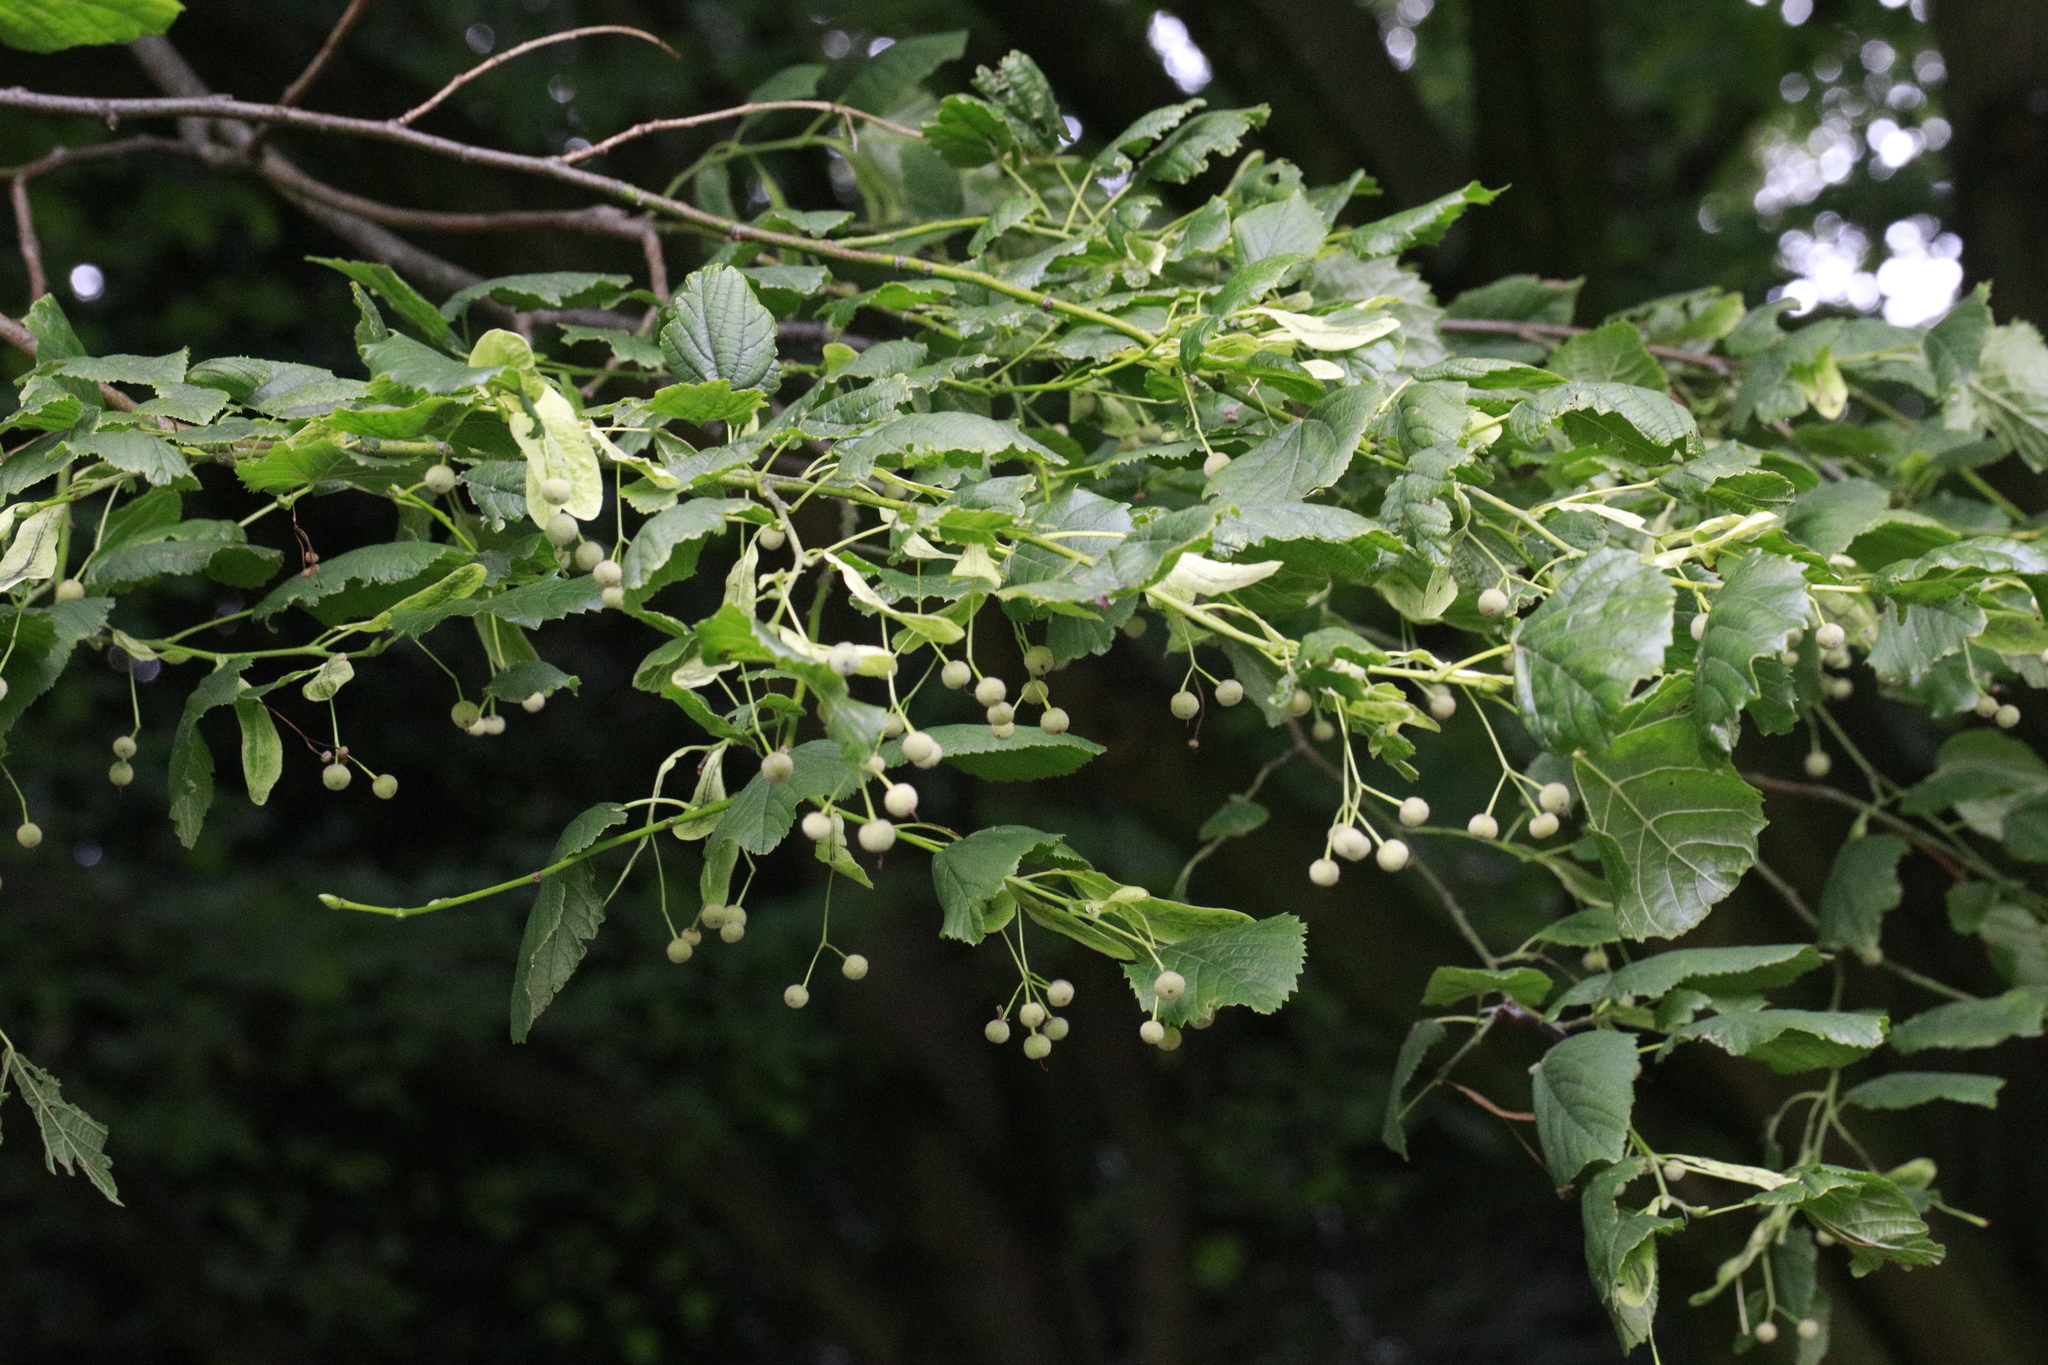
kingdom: Plantae
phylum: Tracheophyta
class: Magnoliopsida
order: Malvales
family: Malvaceae
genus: Tilia
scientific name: Tilia europaea
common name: European linden
